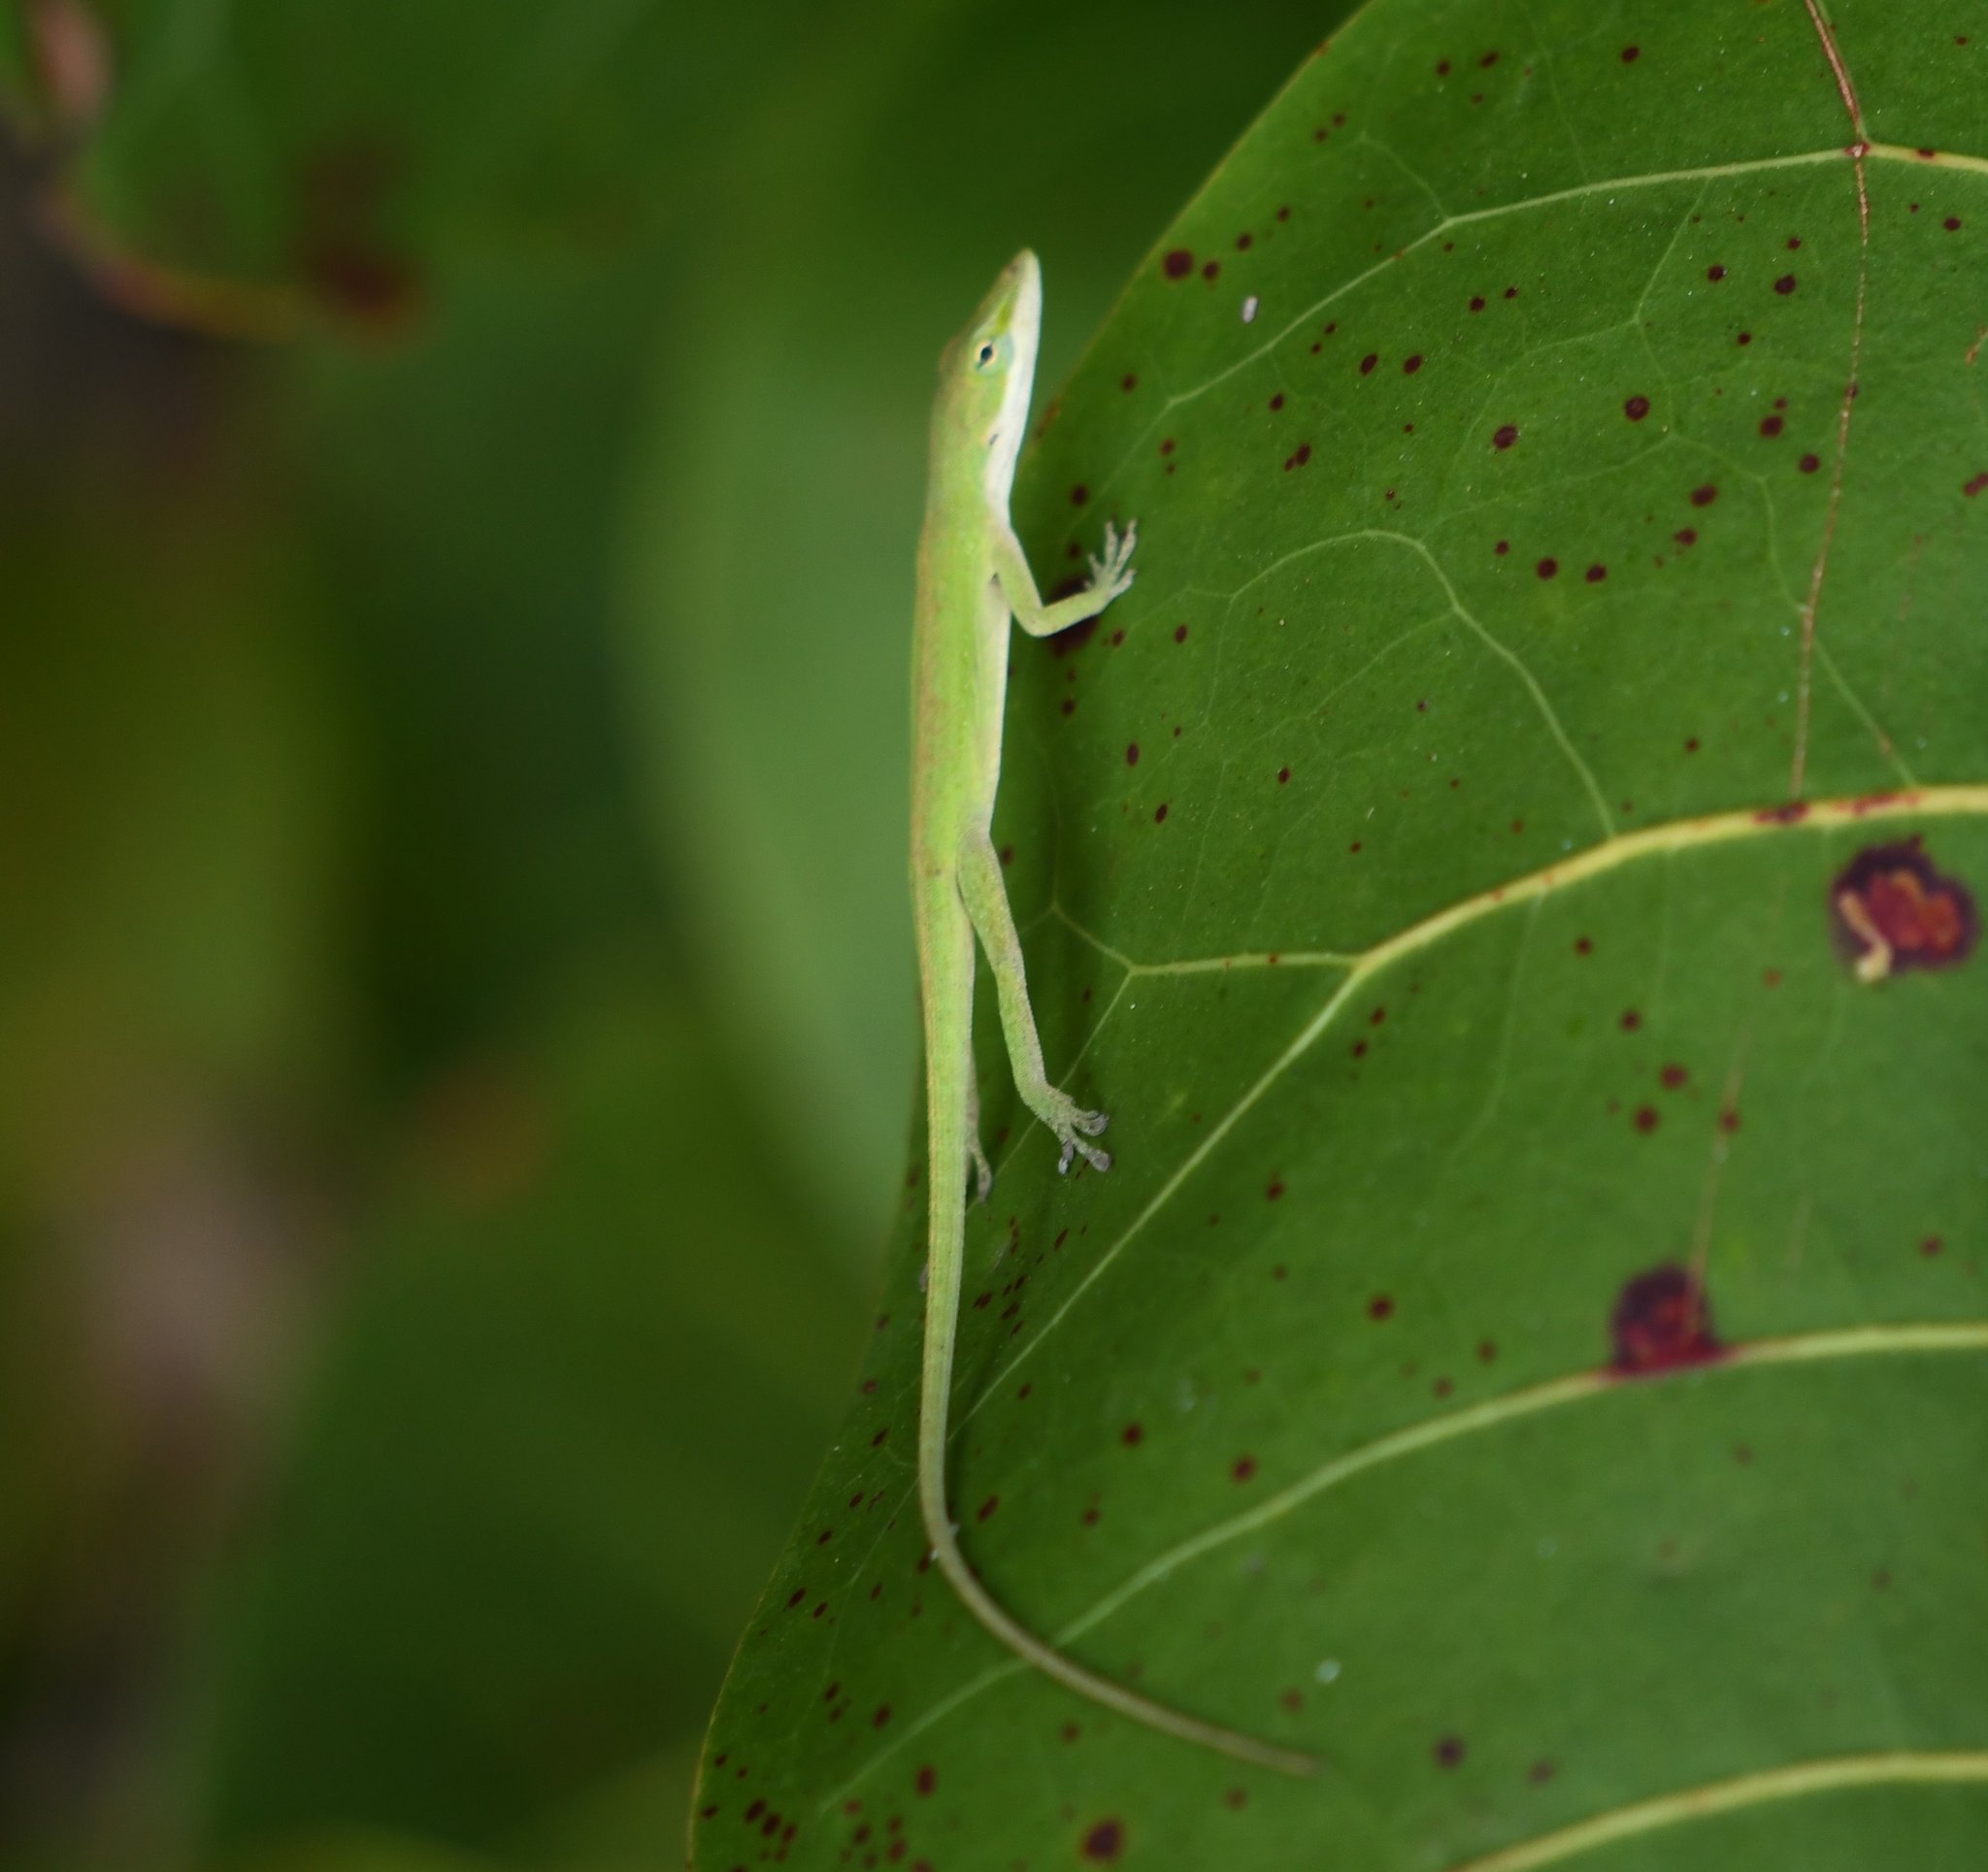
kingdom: Animalia
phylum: Chordata
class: Squamata
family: Dactyloidae
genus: Anolis
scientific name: Anolis carolinensis
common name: Green anole
